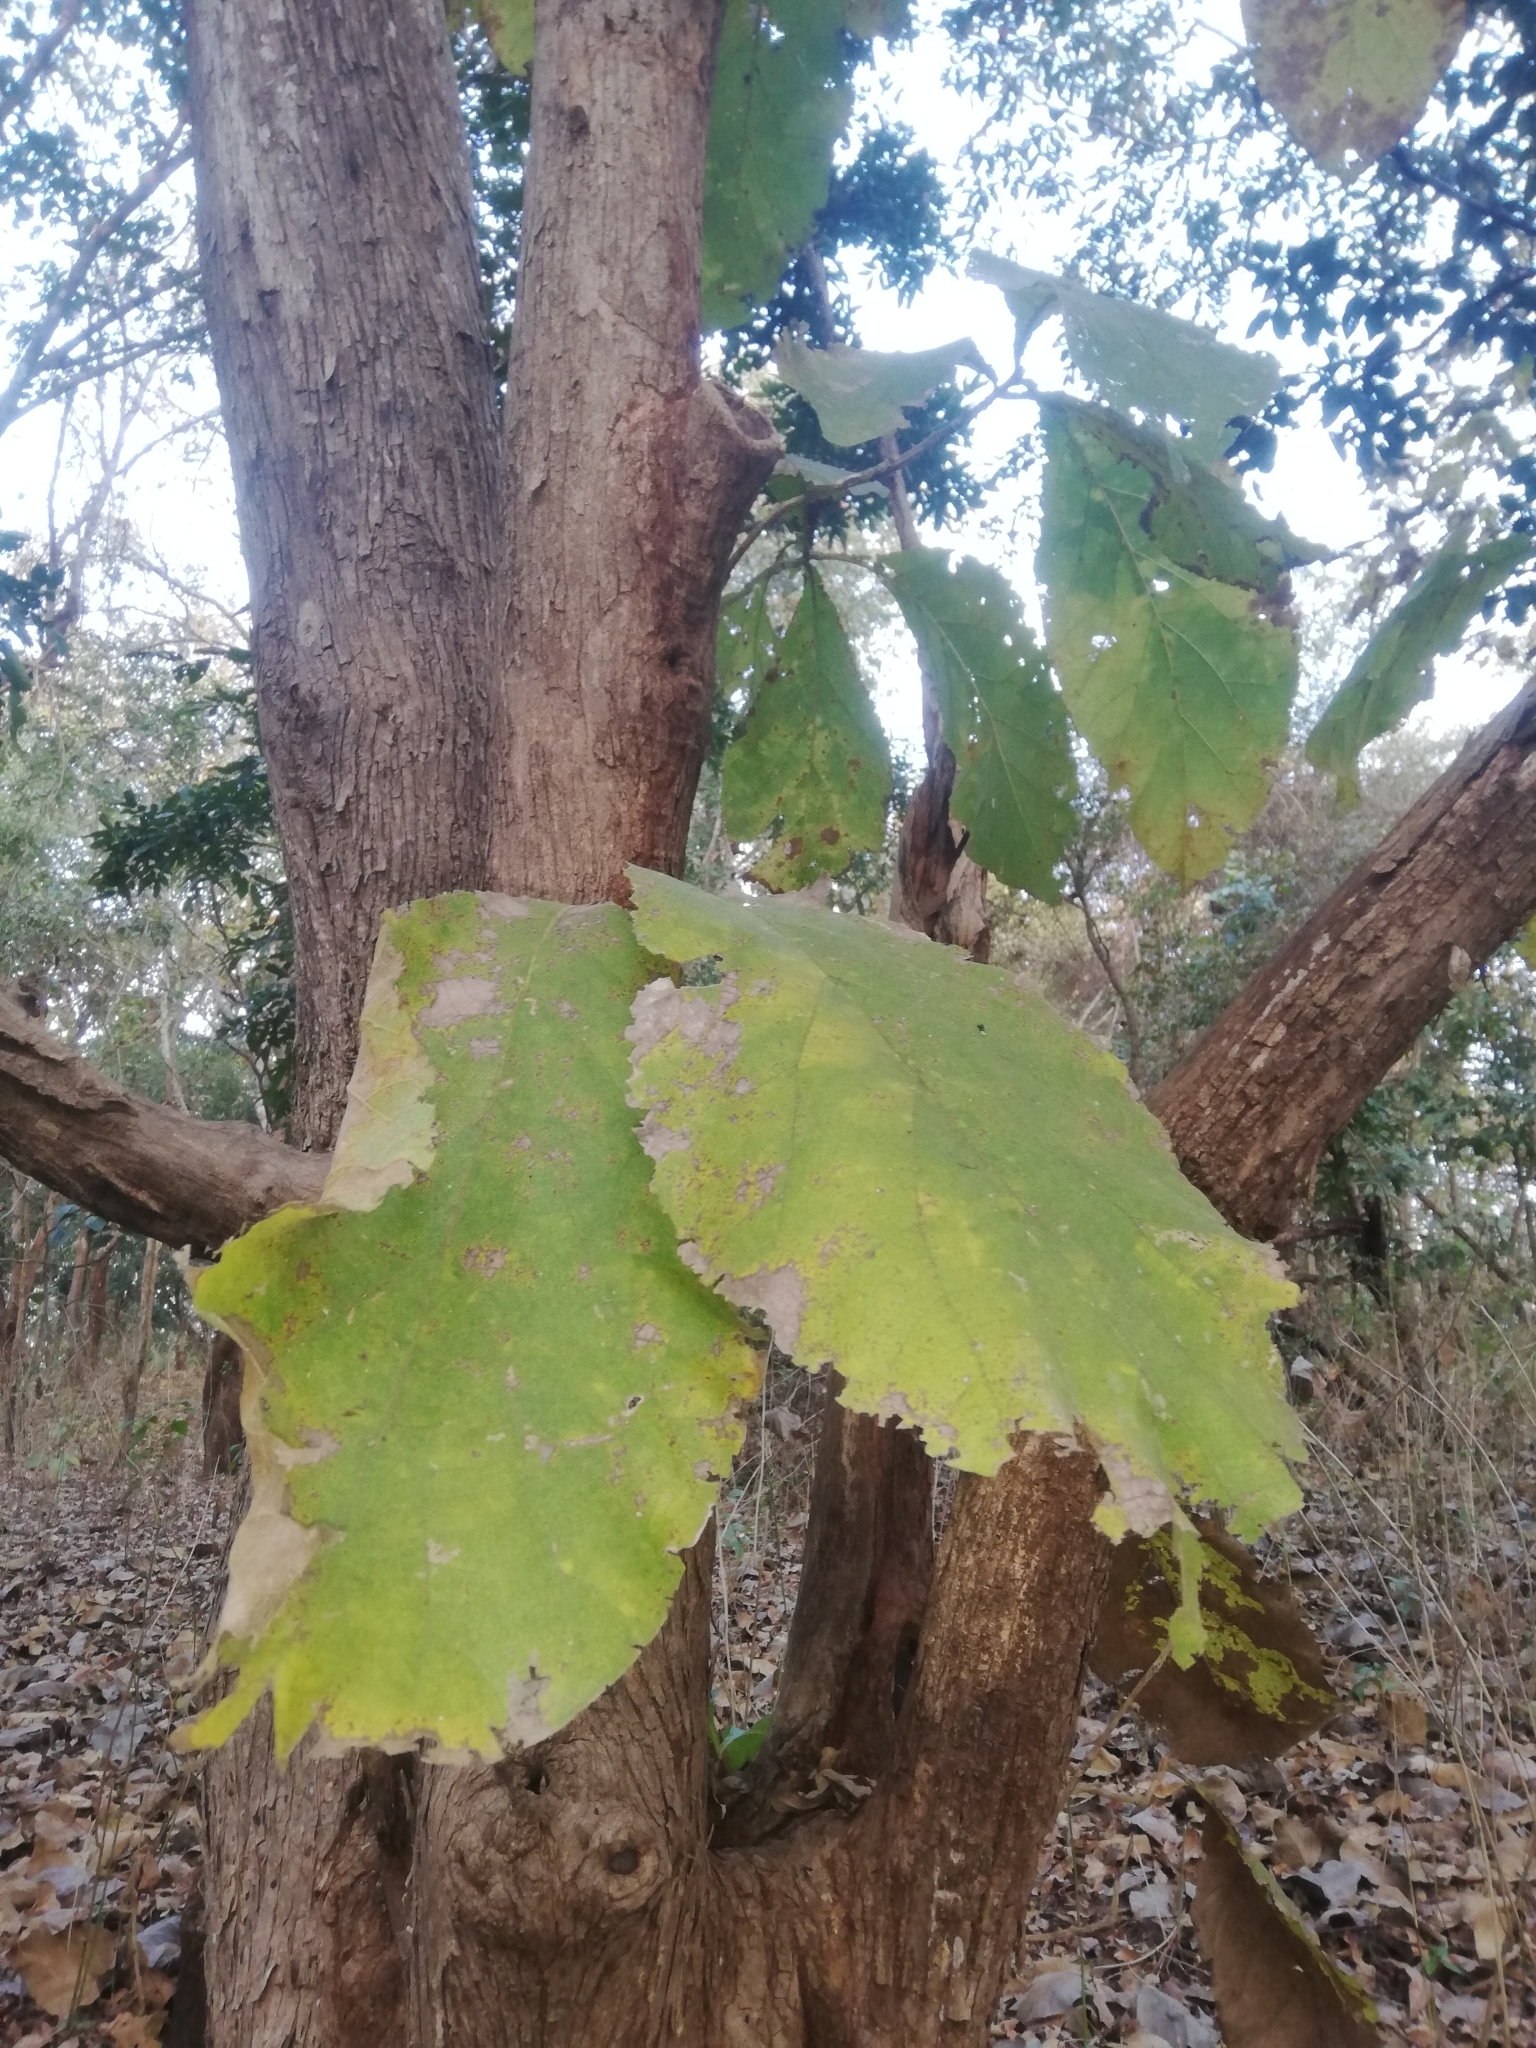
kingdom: Plantae
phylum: Tracheophyta
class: Magnoliopsida
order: Lamiales
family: Lamiaceae
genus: Tectona
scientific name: Tectona grandis
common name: Teak
